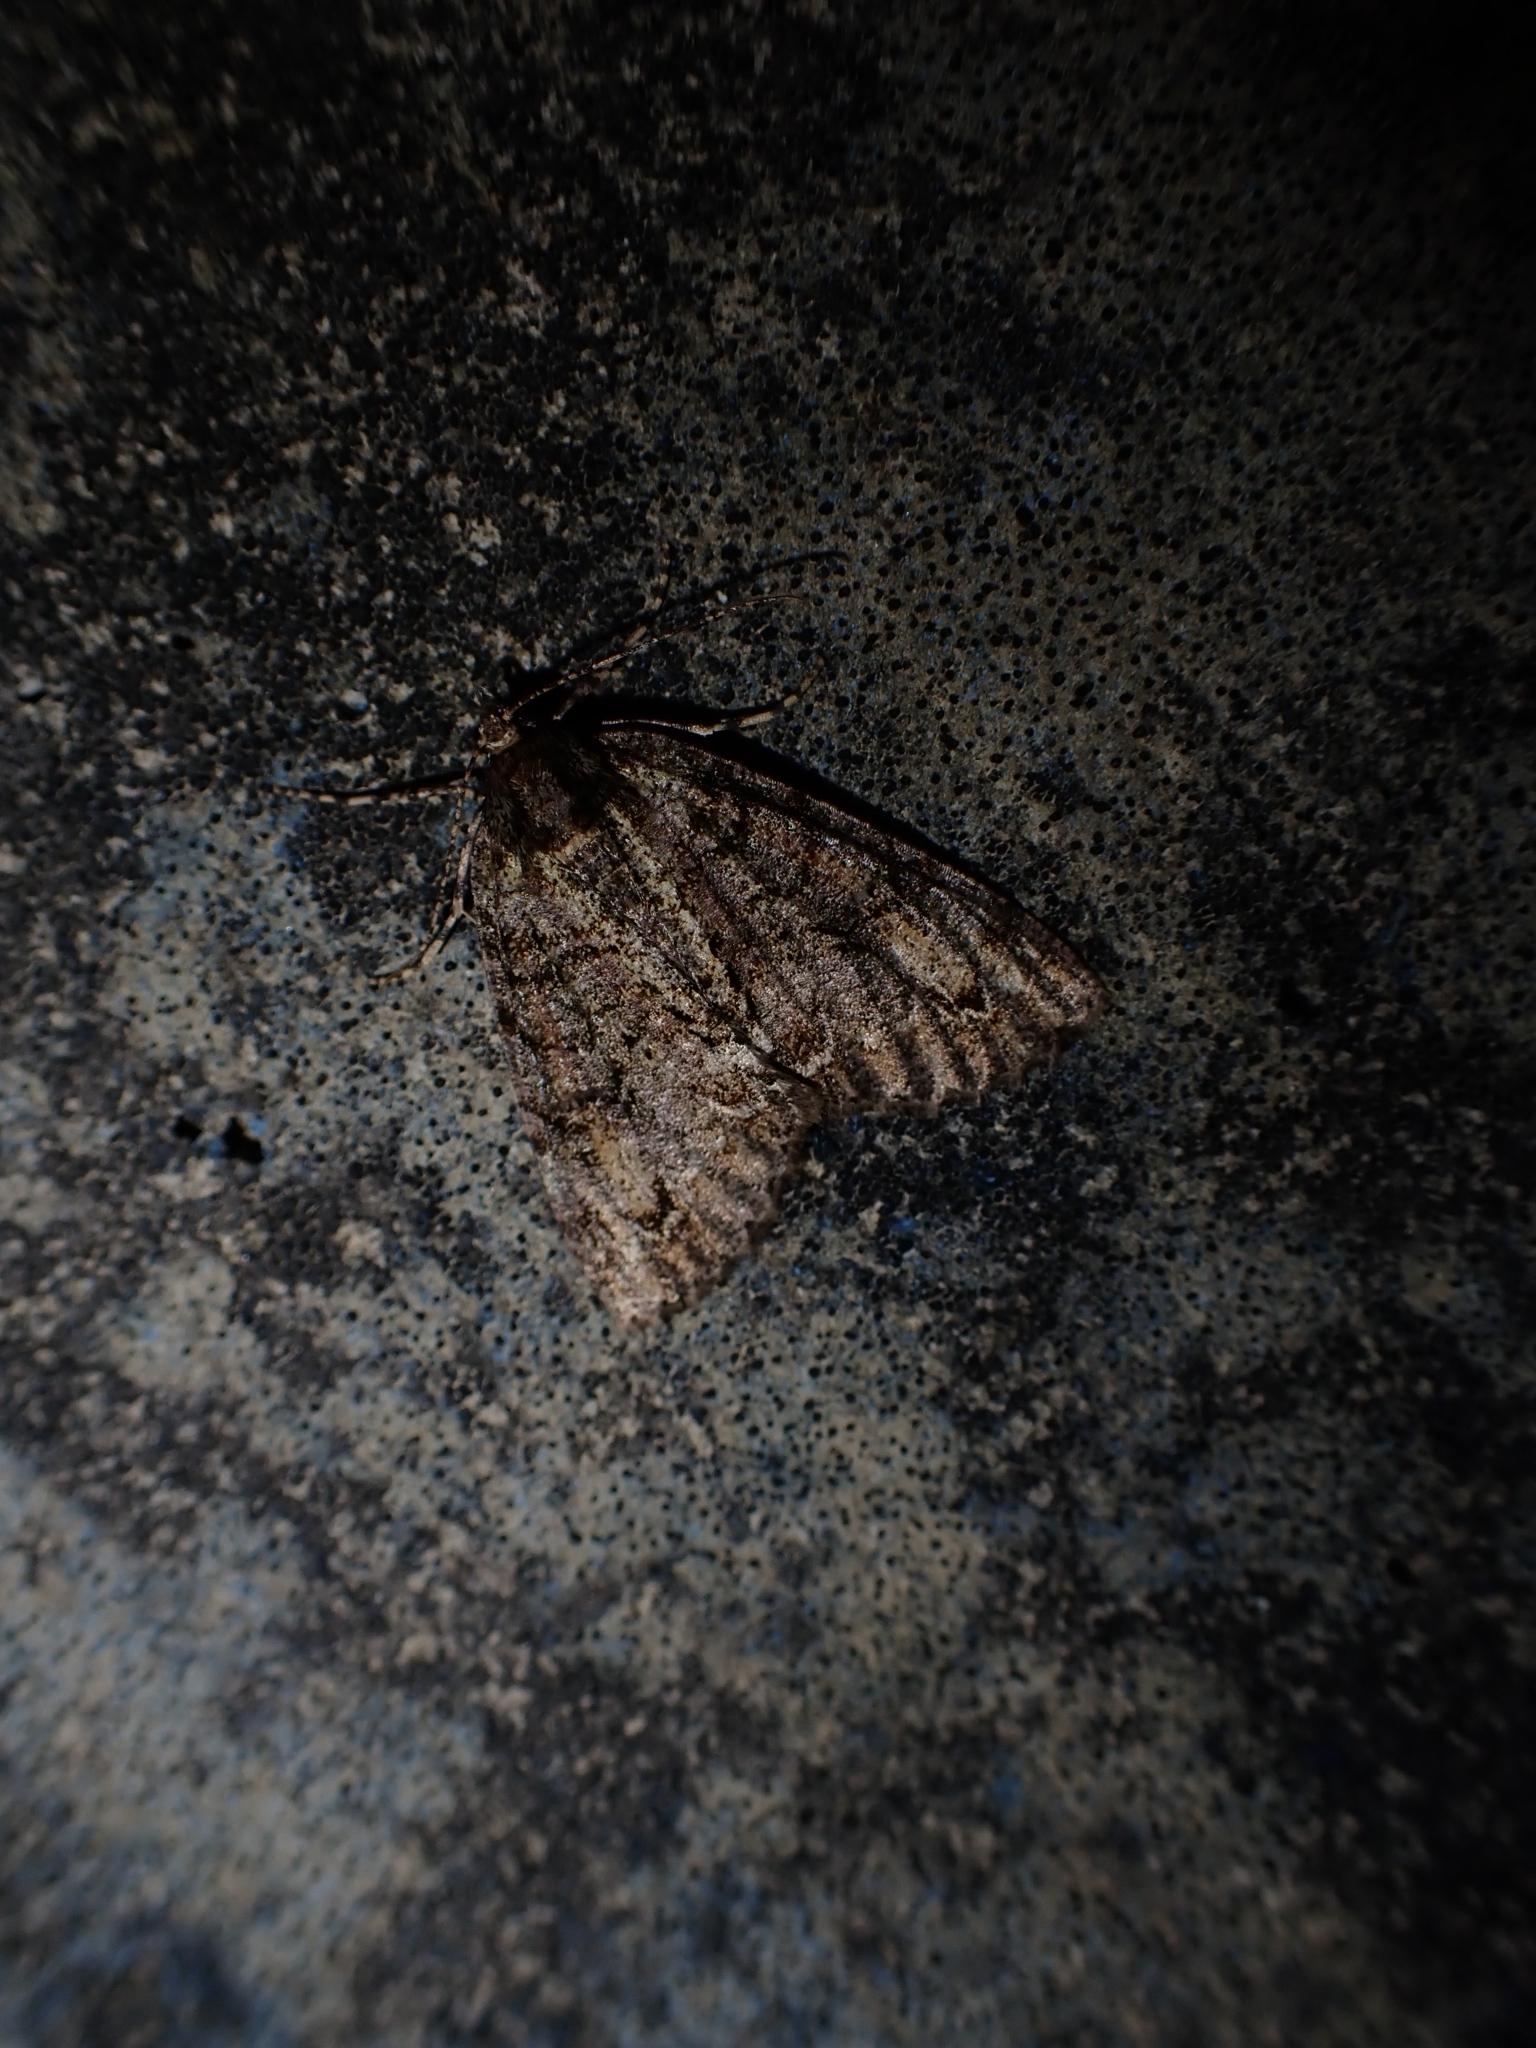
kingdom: Animalia
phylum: Arthropoda
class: Insecta
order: Lepidoptera
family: Geometridae
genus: Pseudocoremia
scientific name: Pseudocoremia suavis
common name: Common forest looper
